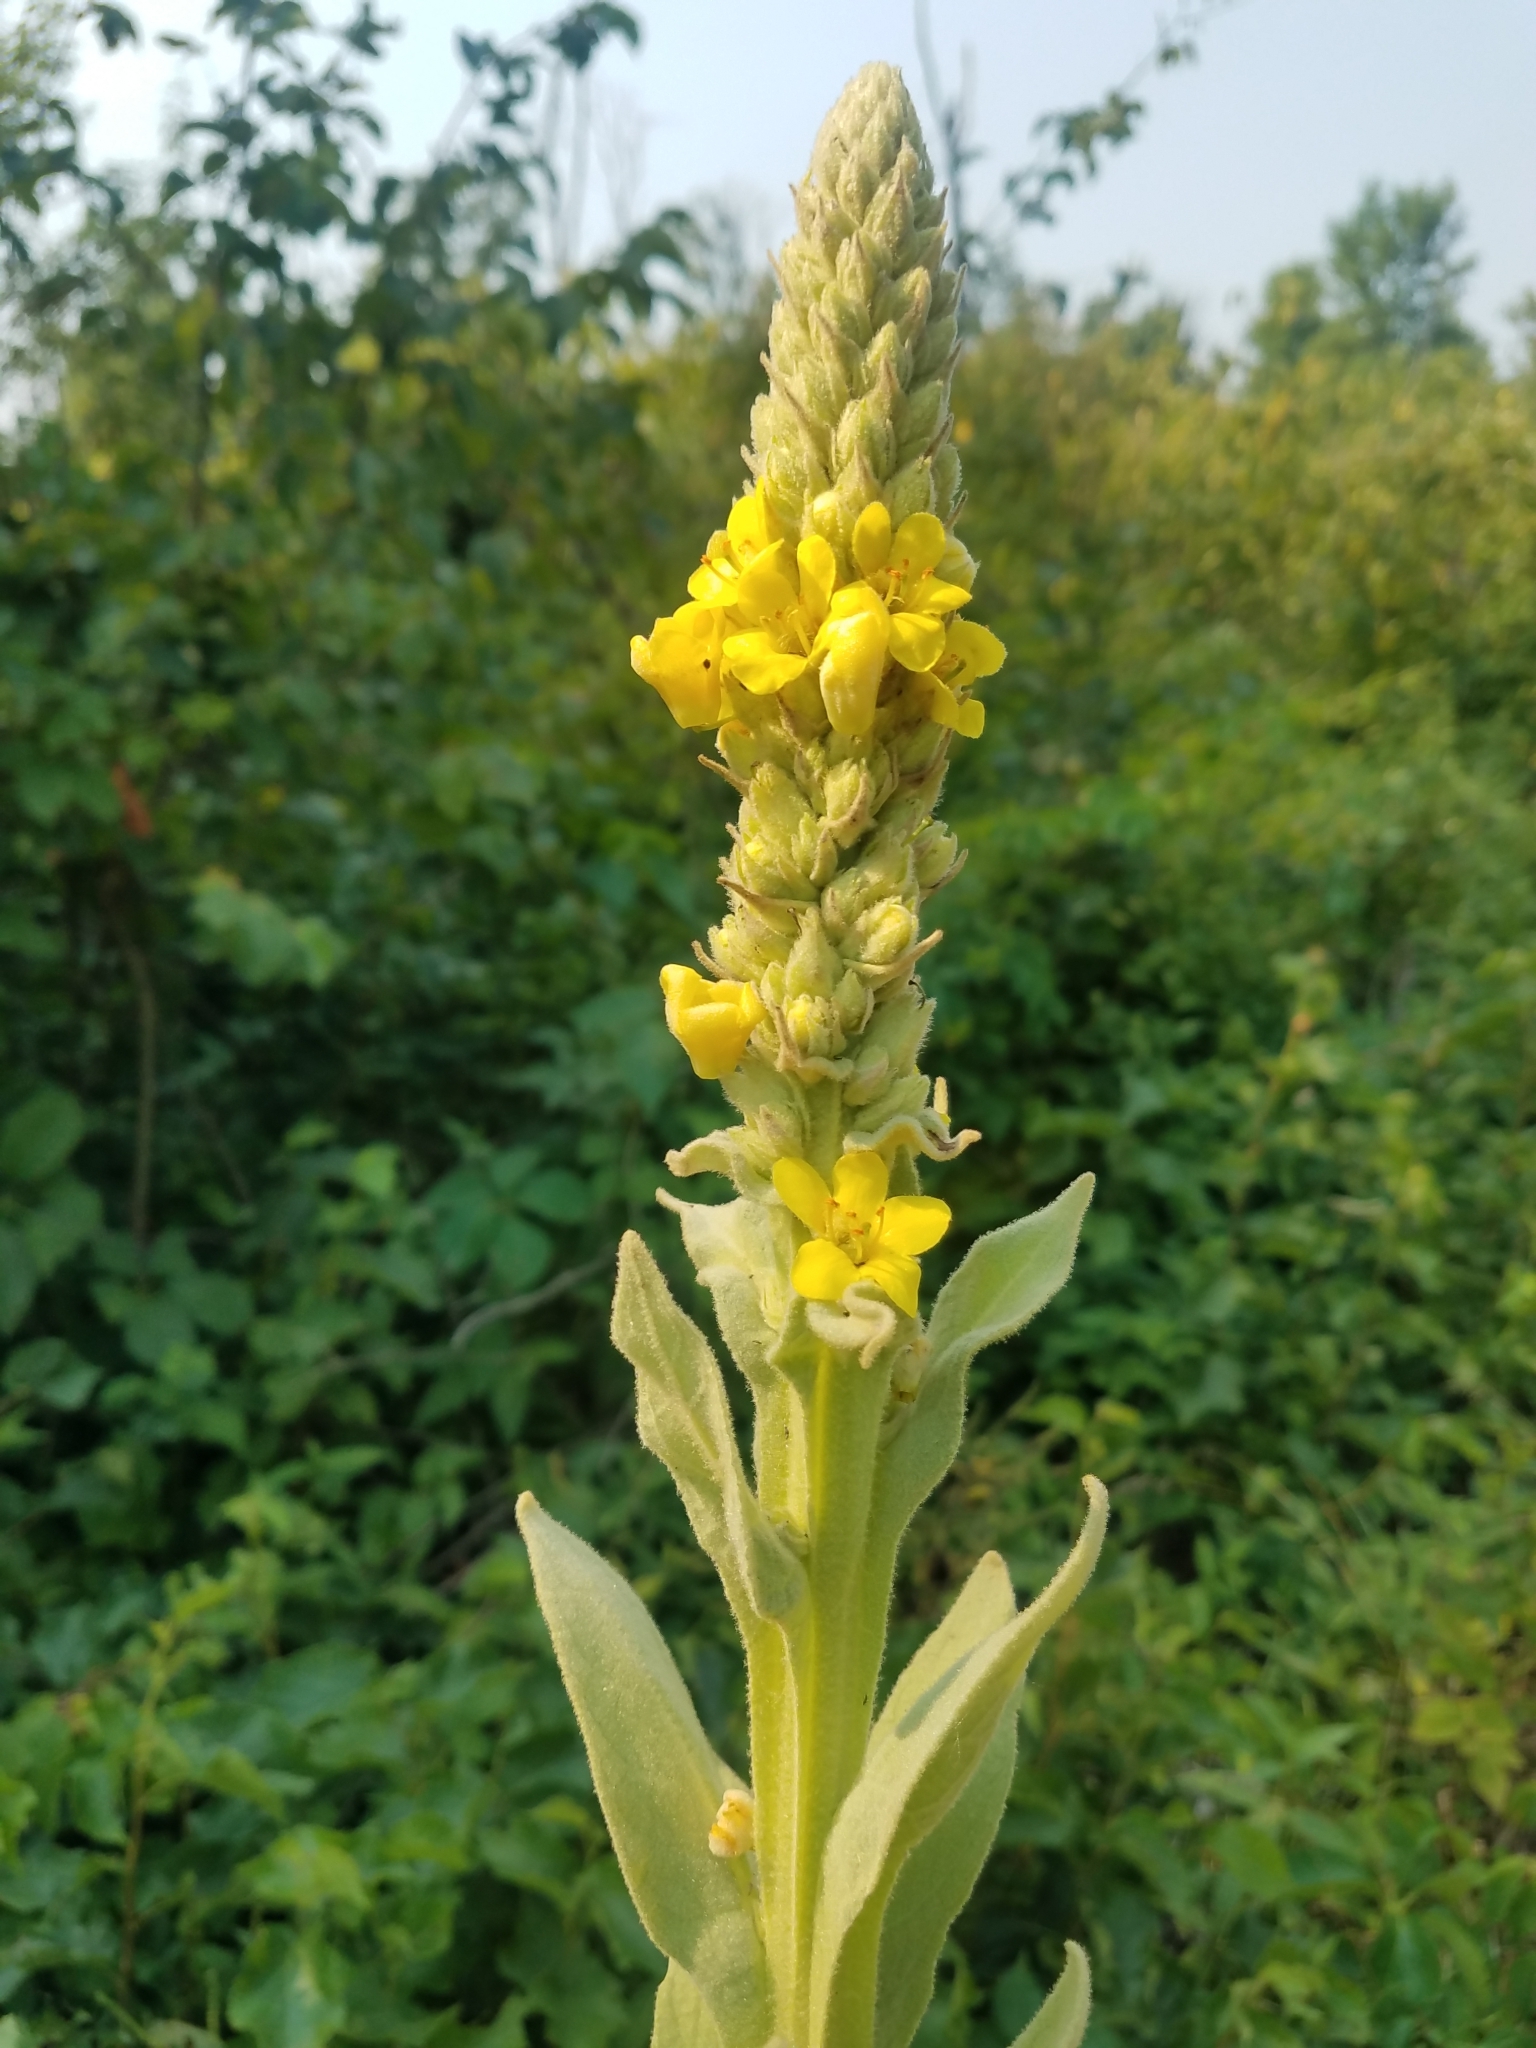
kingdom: Plantae
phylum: Tracheophyta
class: Magnoliopsida
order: Lamiales
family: Scrophulariaceae
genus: Verbascum
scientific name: Verbascum thapsus
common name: Common mullein
